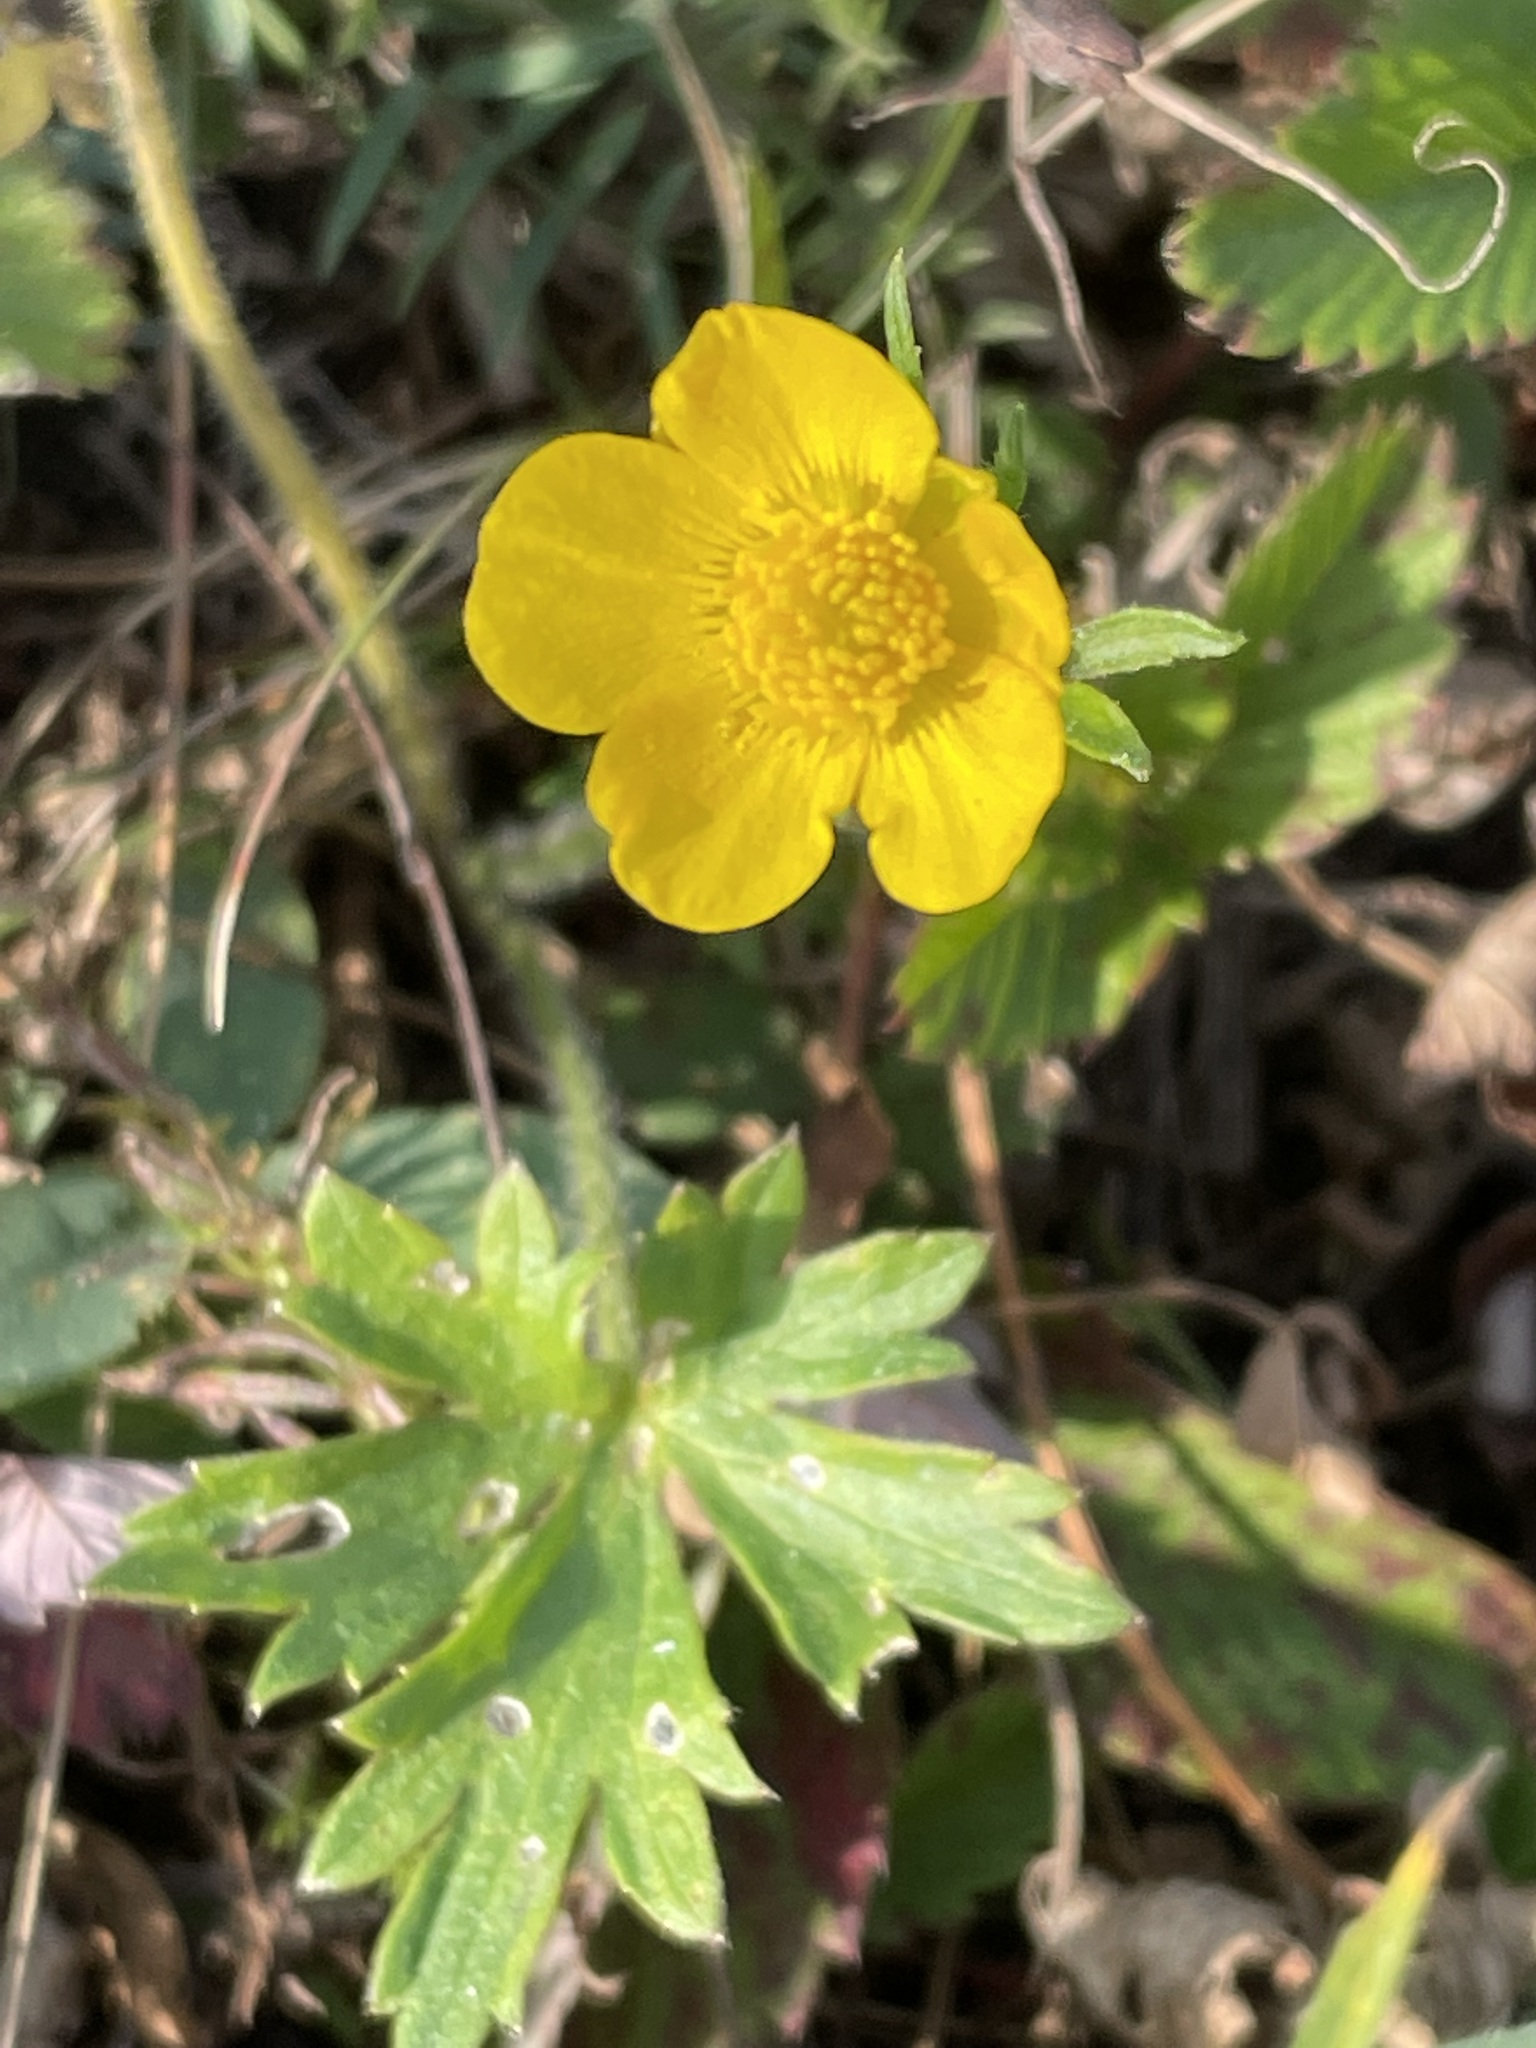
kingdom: Plantae
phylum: Tracheophyta
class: Magnoliopsida
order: Ranunculales
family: Ranunculaceae
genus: Ranunculus
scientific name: Ranunculus polyanthemos
